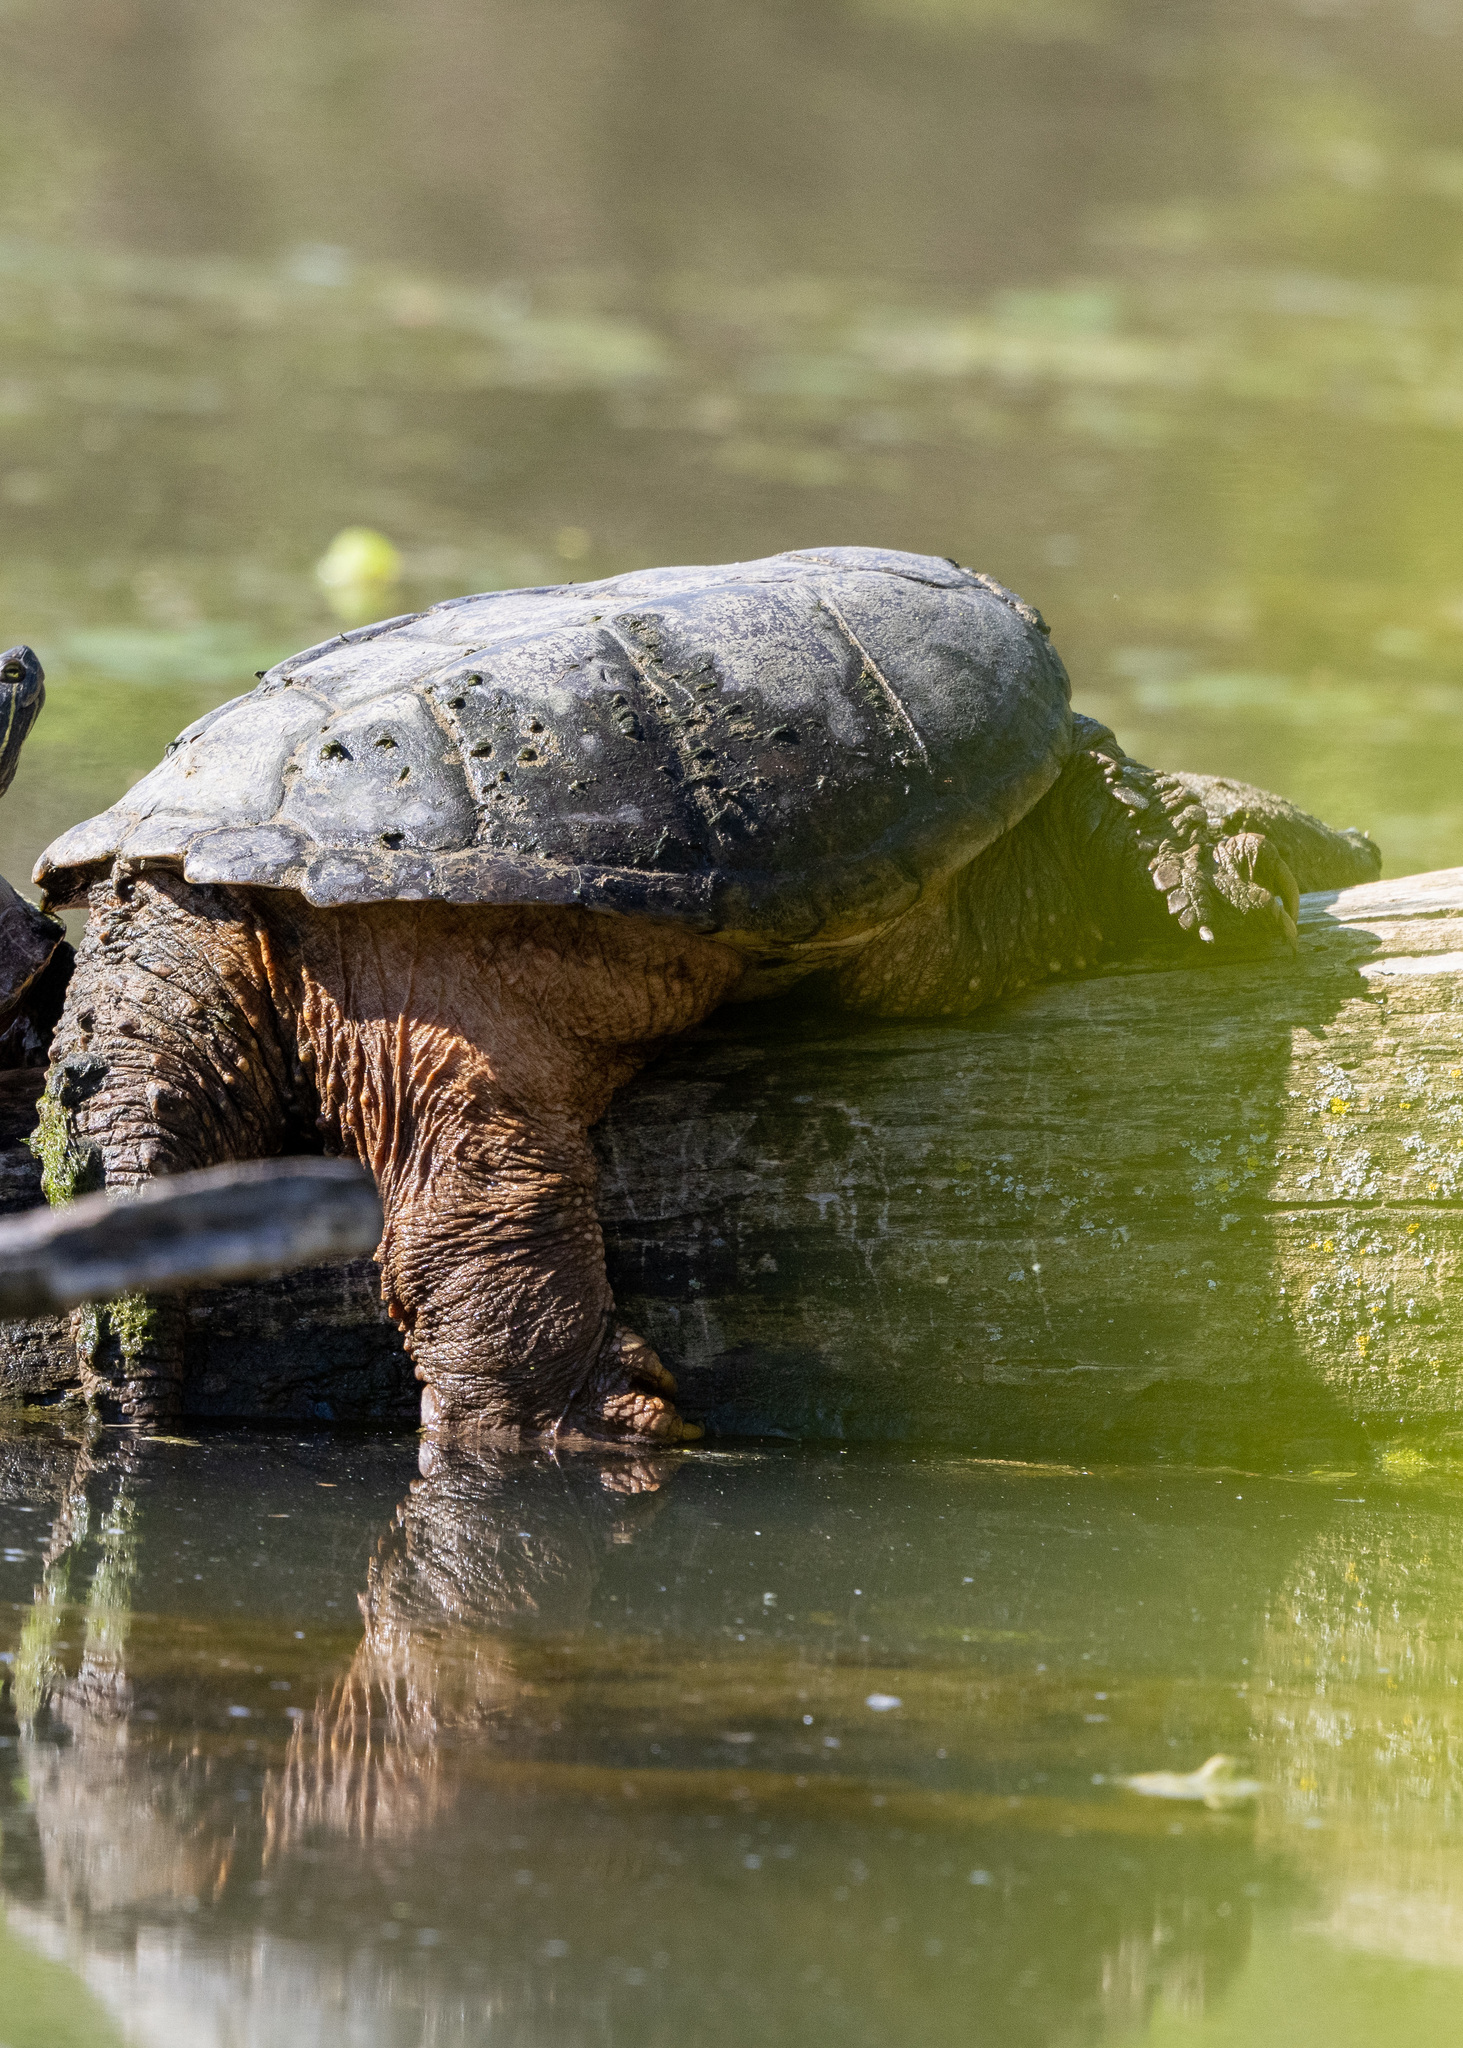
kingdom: Animalia
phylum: Chordata
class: Testudines
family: Chelydridae
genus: Chelydra
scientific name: Chelydra serpentina
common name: Common snapping turtle
